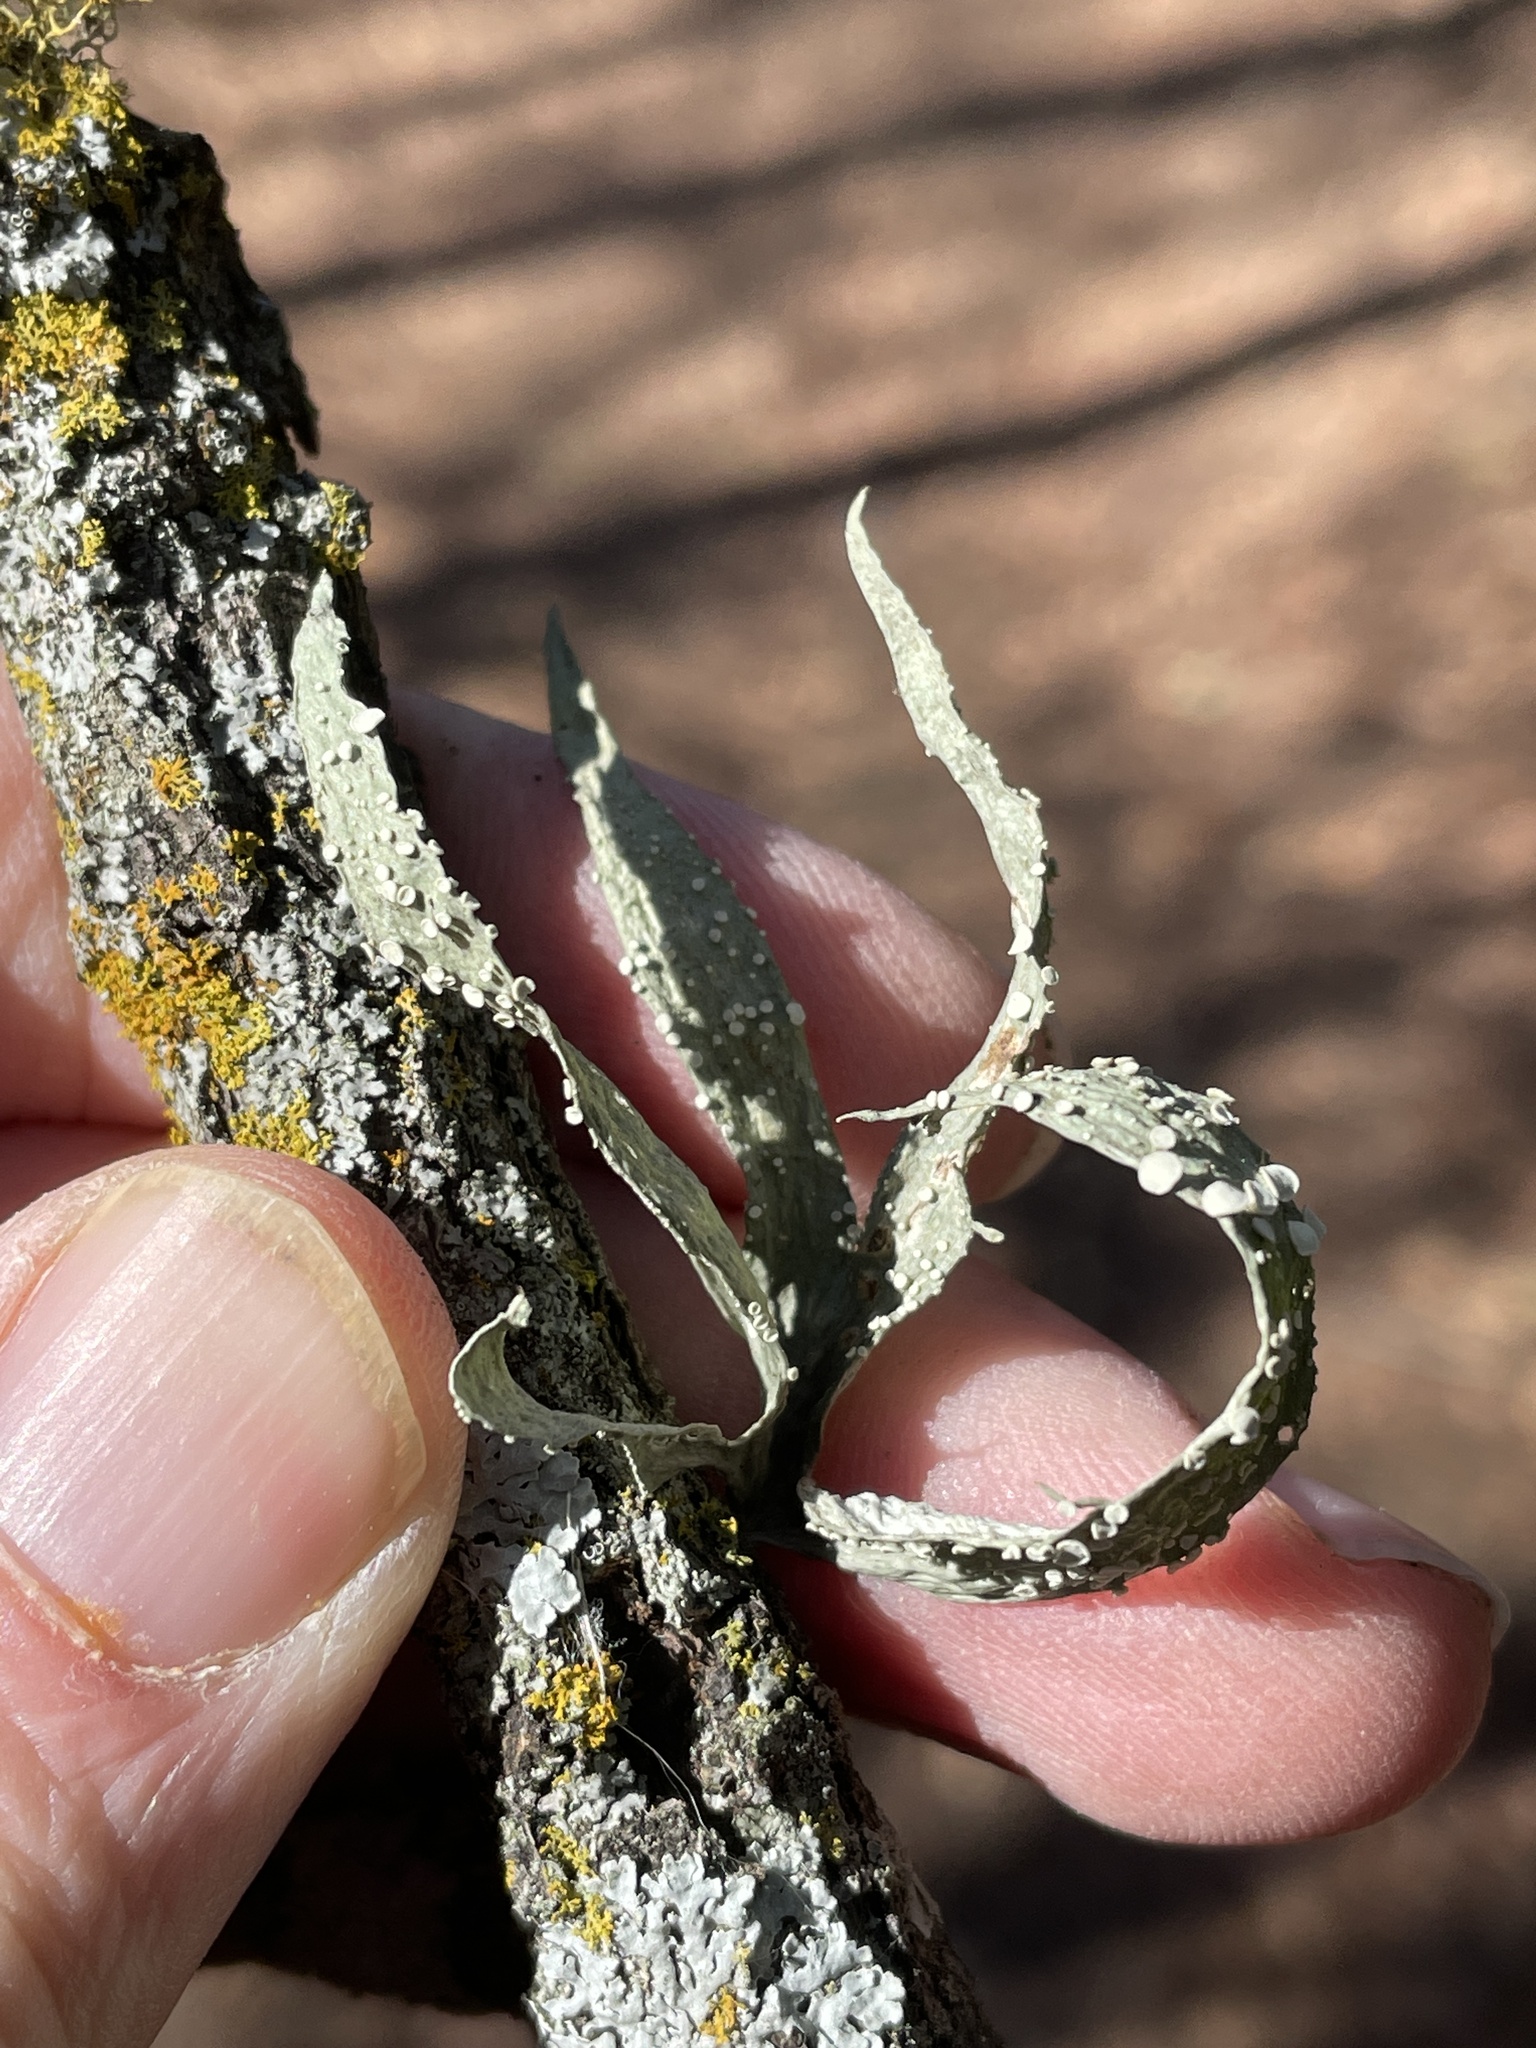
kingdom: Fungi
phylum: Ascomycota
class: Lecanoromycetes
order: Lecanorales
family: Ramalinaceae
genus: Ramalina
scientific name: Ramalina celastri
